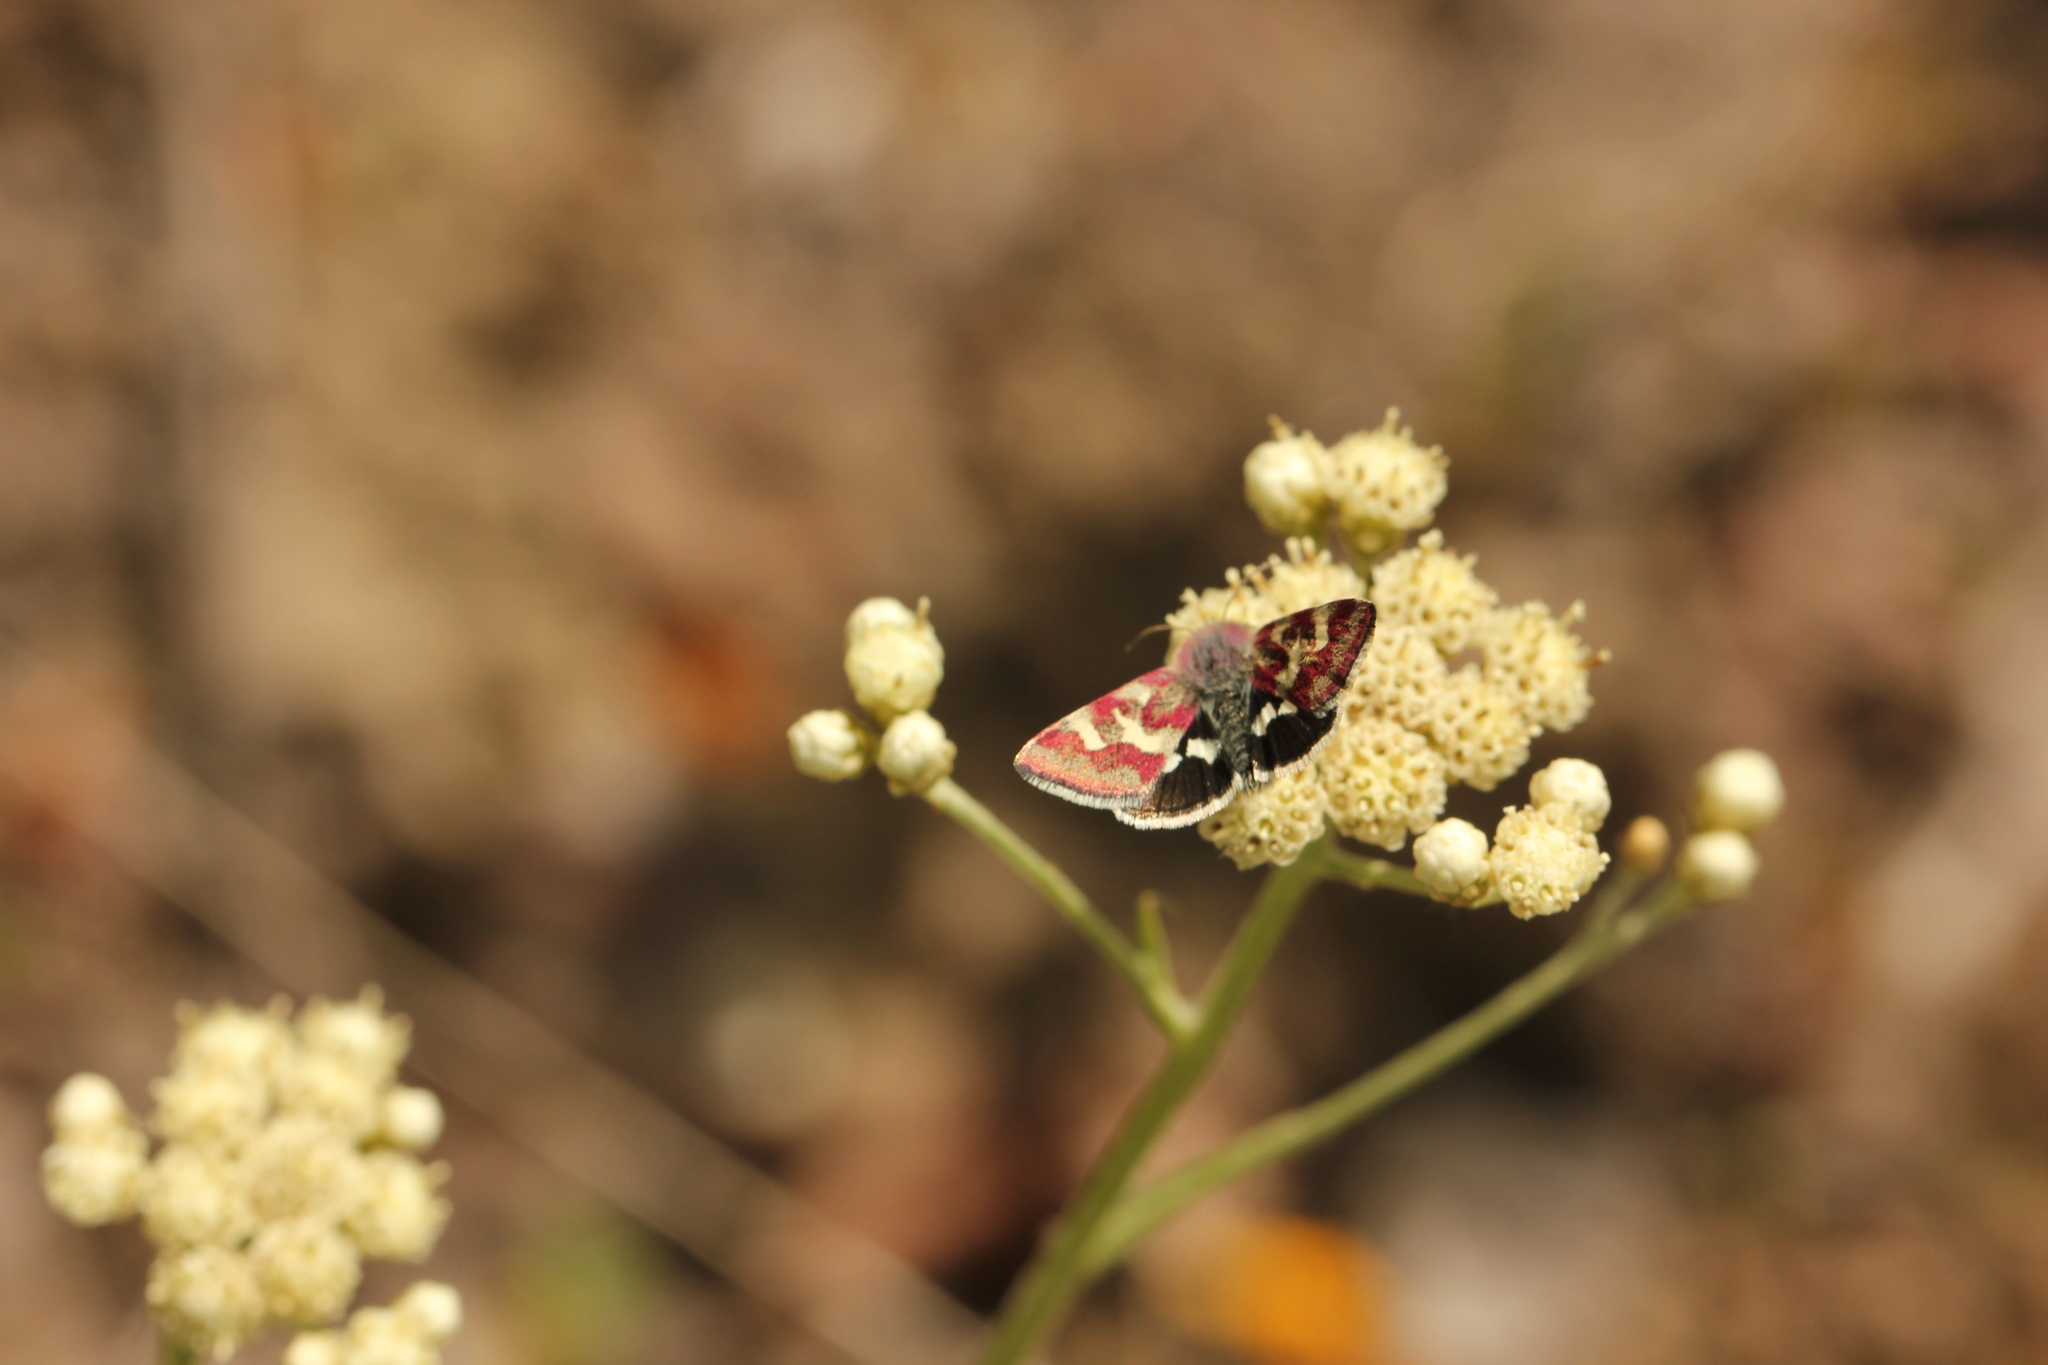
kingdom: Animalia
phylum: Arthropoda
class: Insecta
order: Lepidoptera
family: Noctuidae
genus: Eutricopis
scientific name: Eutricopis nexilis
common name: White-spotted midget moth
